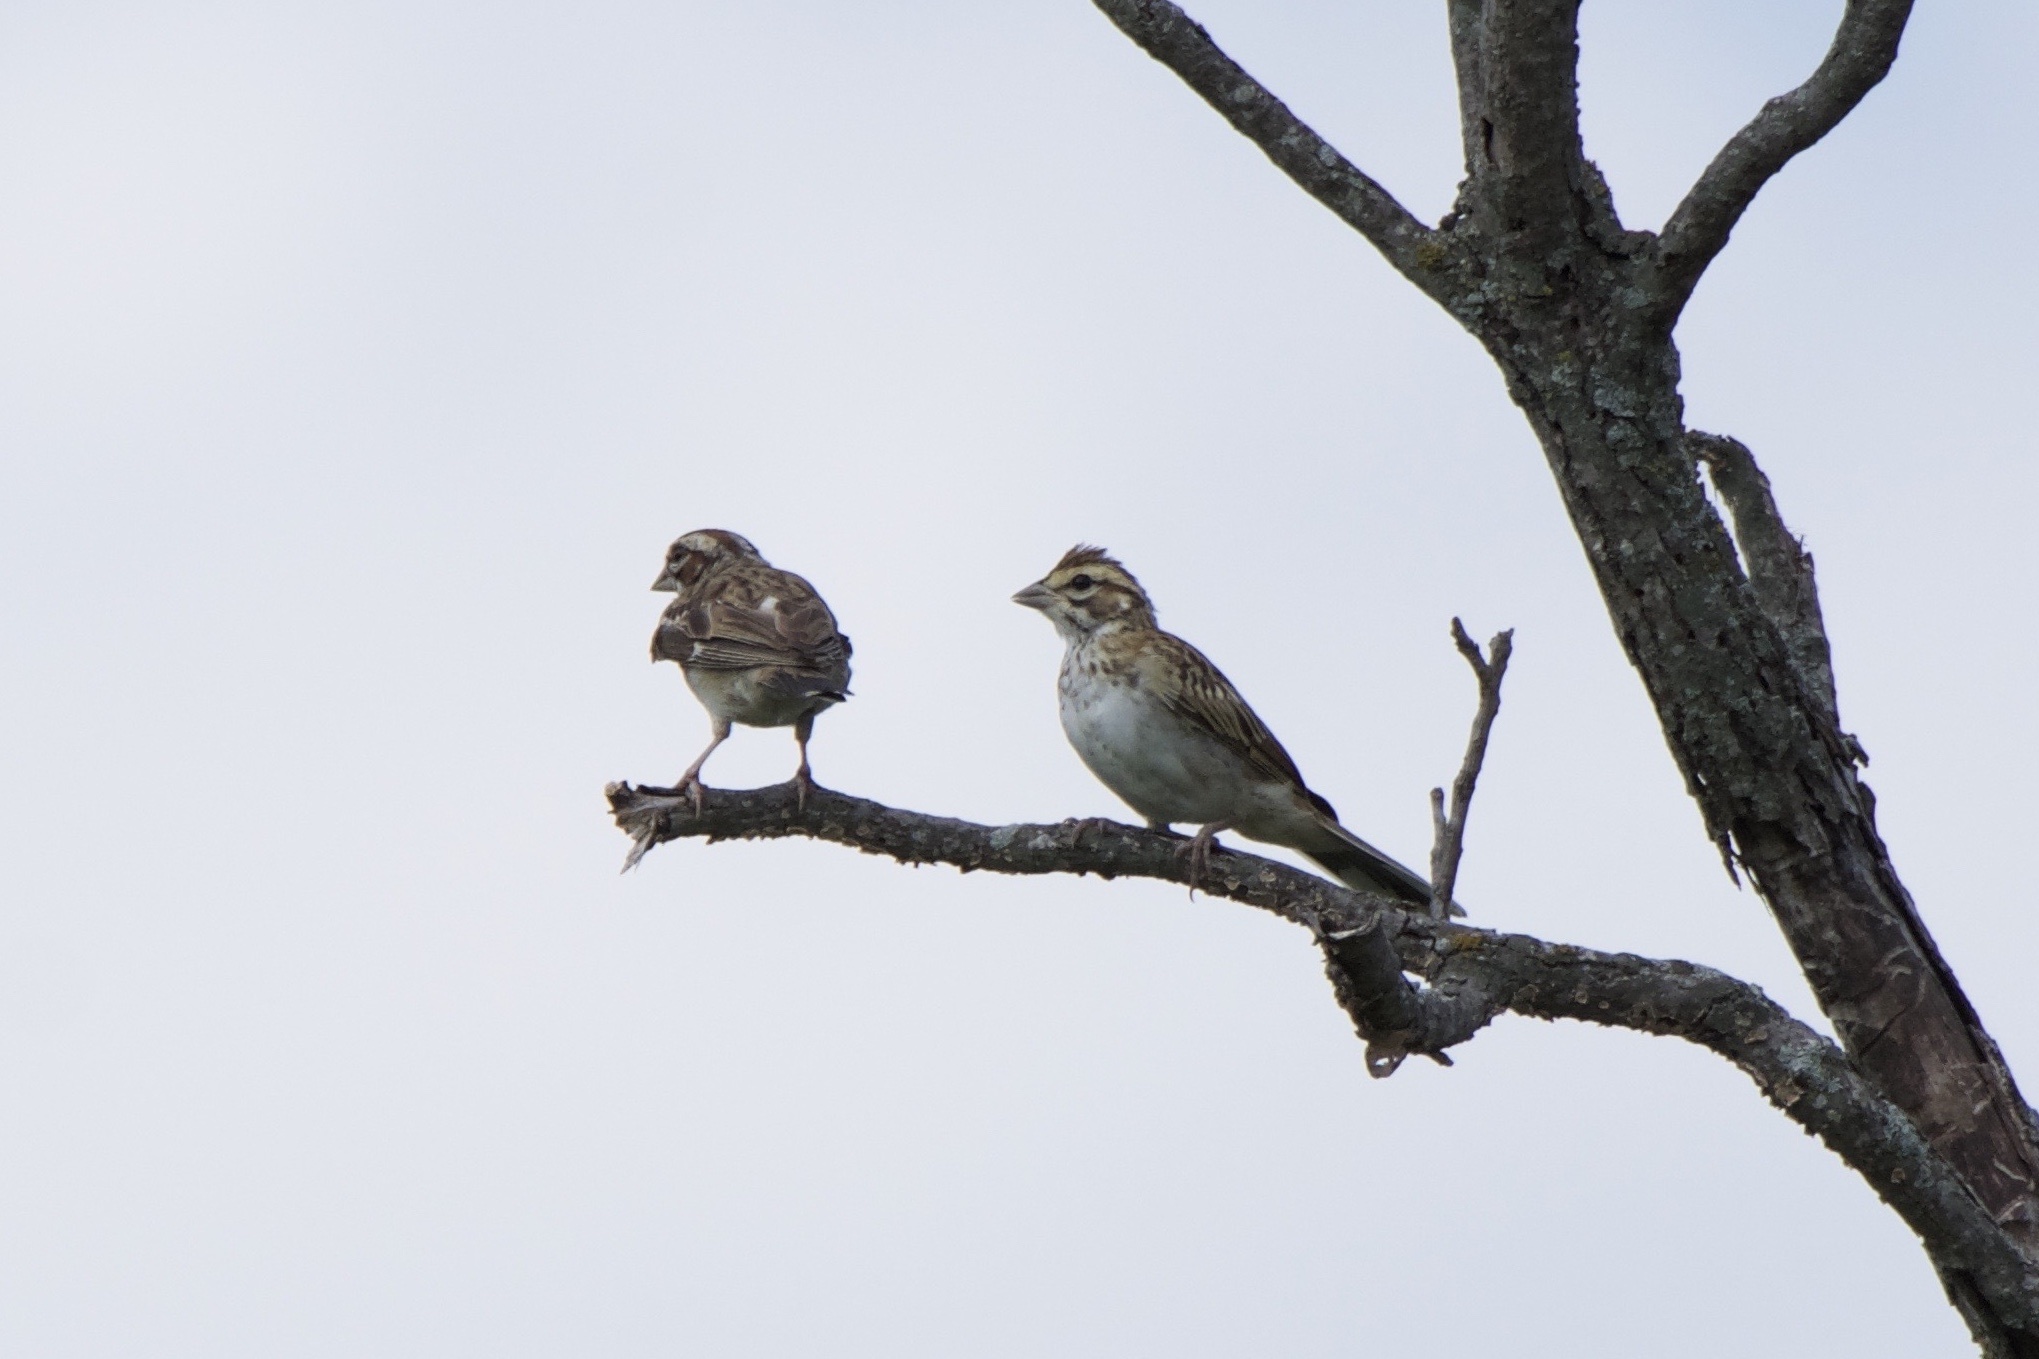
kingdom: Animalia
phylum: Chordata
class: Aves
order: Passeriformes
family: Passerellidae
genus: Chondestes
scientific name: Chondestes grammacus
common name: Lark sparrow
